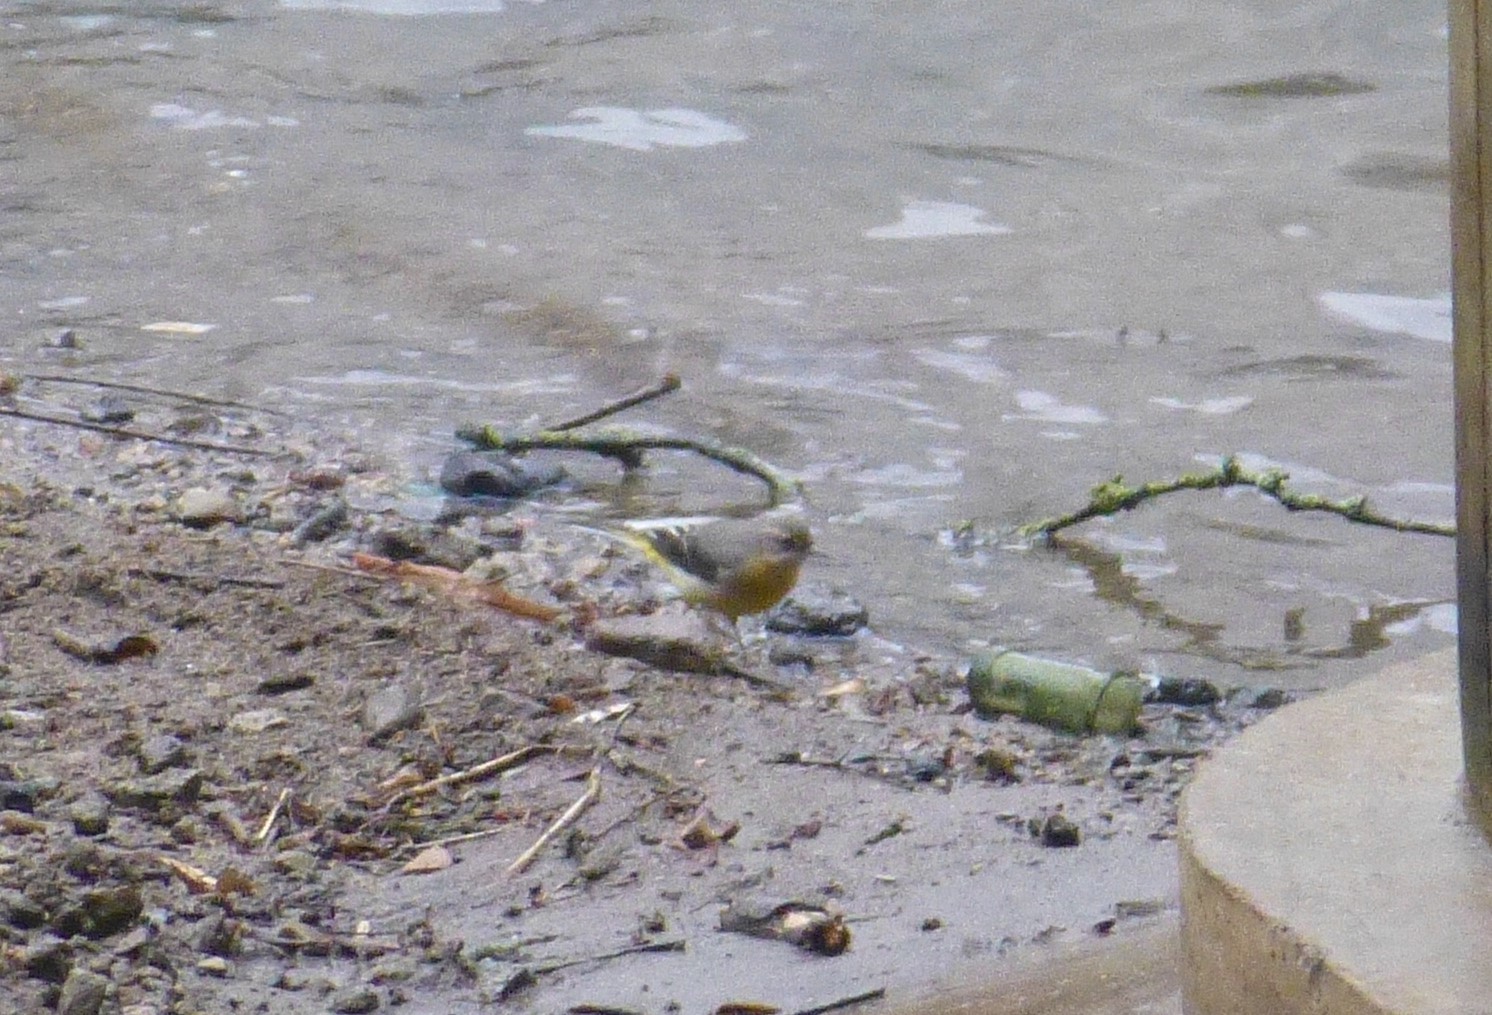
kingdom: Animalia
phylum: Chordata
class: Aves
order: Passeriformes
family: Motacillidae
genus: Motacilla
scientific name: Motacilla cinerea
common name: Grey wagtail
